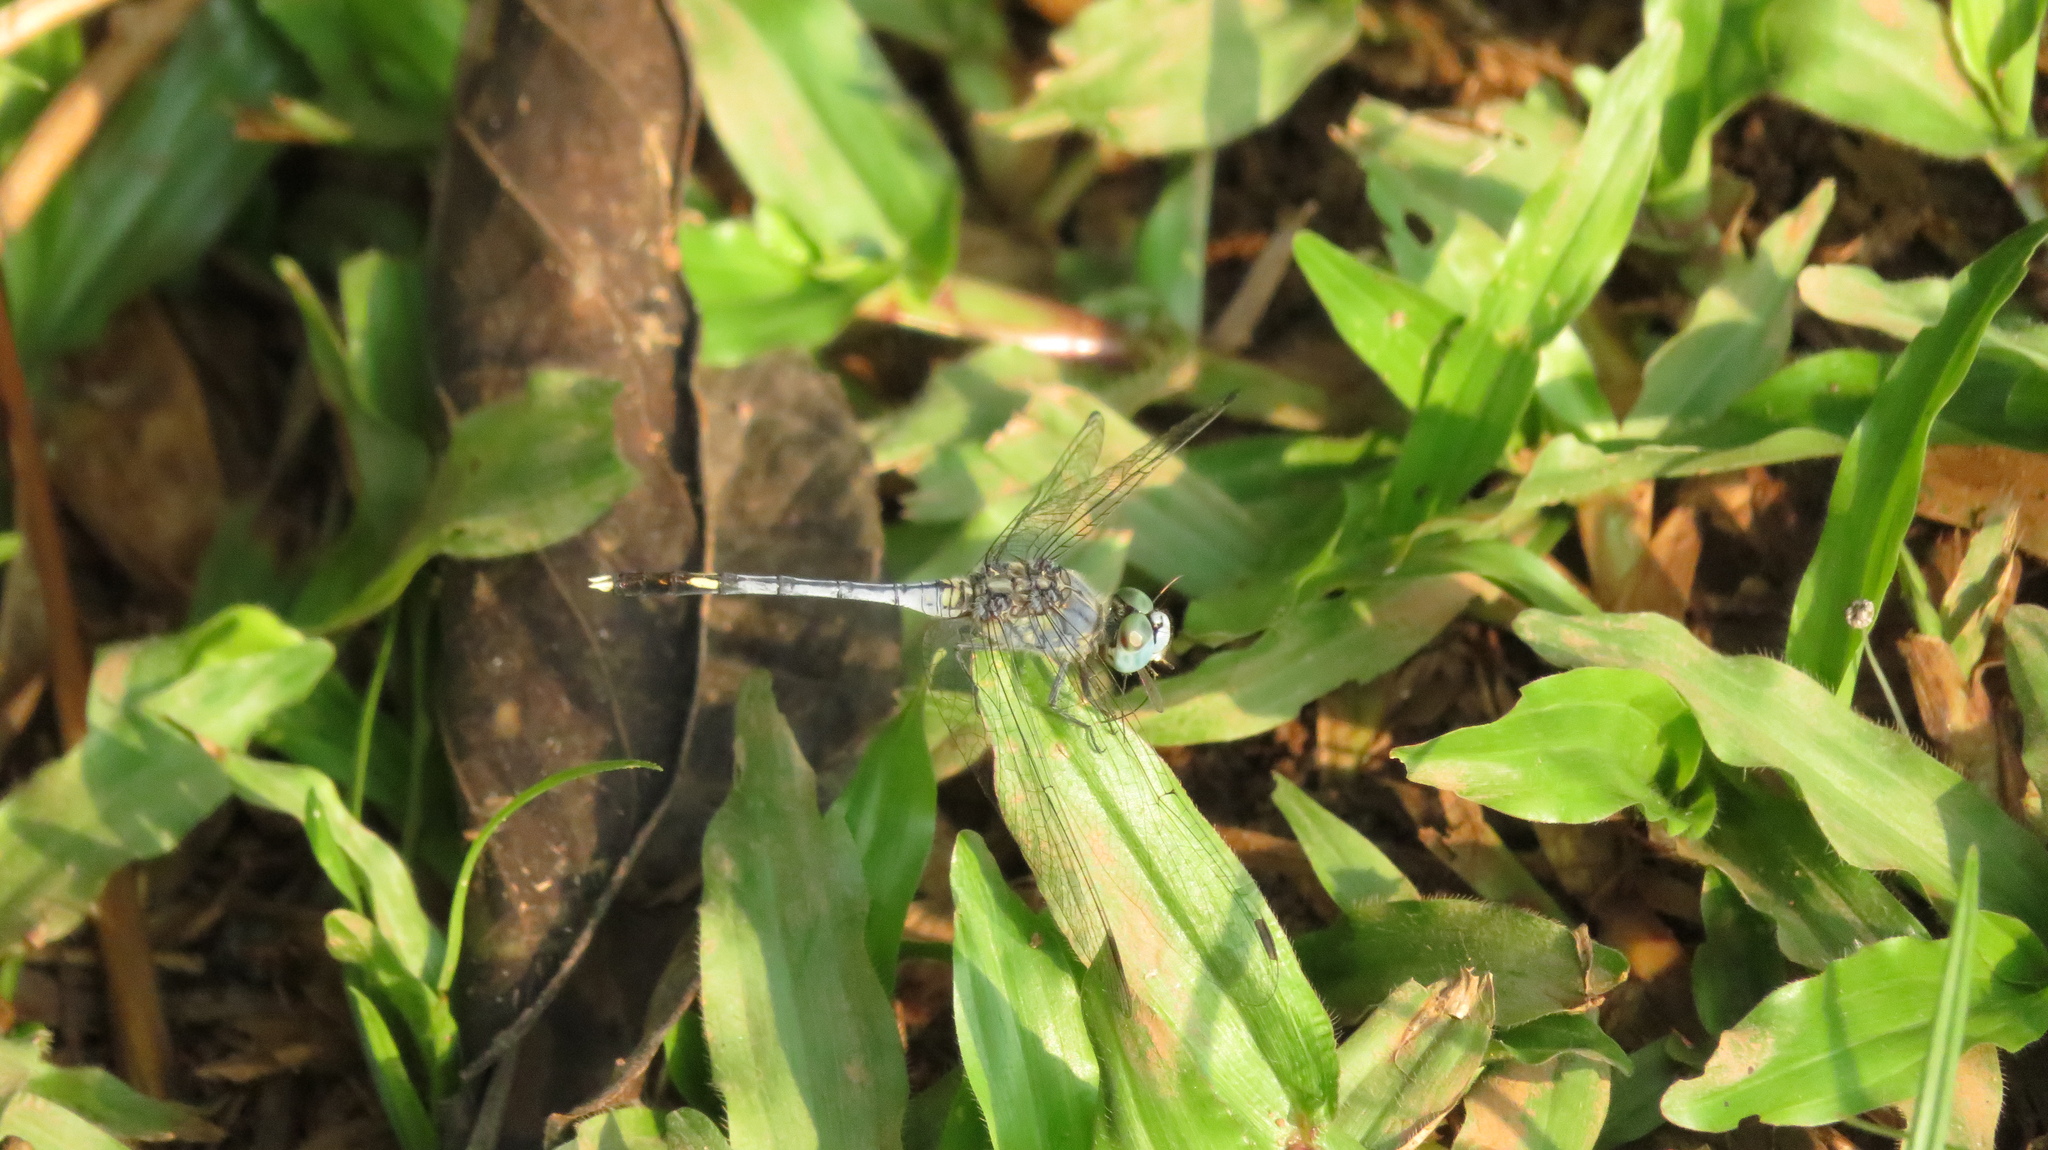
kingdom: Animalia
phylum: Arthropoda
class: Insecta
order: Odonata
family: Libellulidae
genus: Diplacodes
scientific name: Diplacodes trivialis
